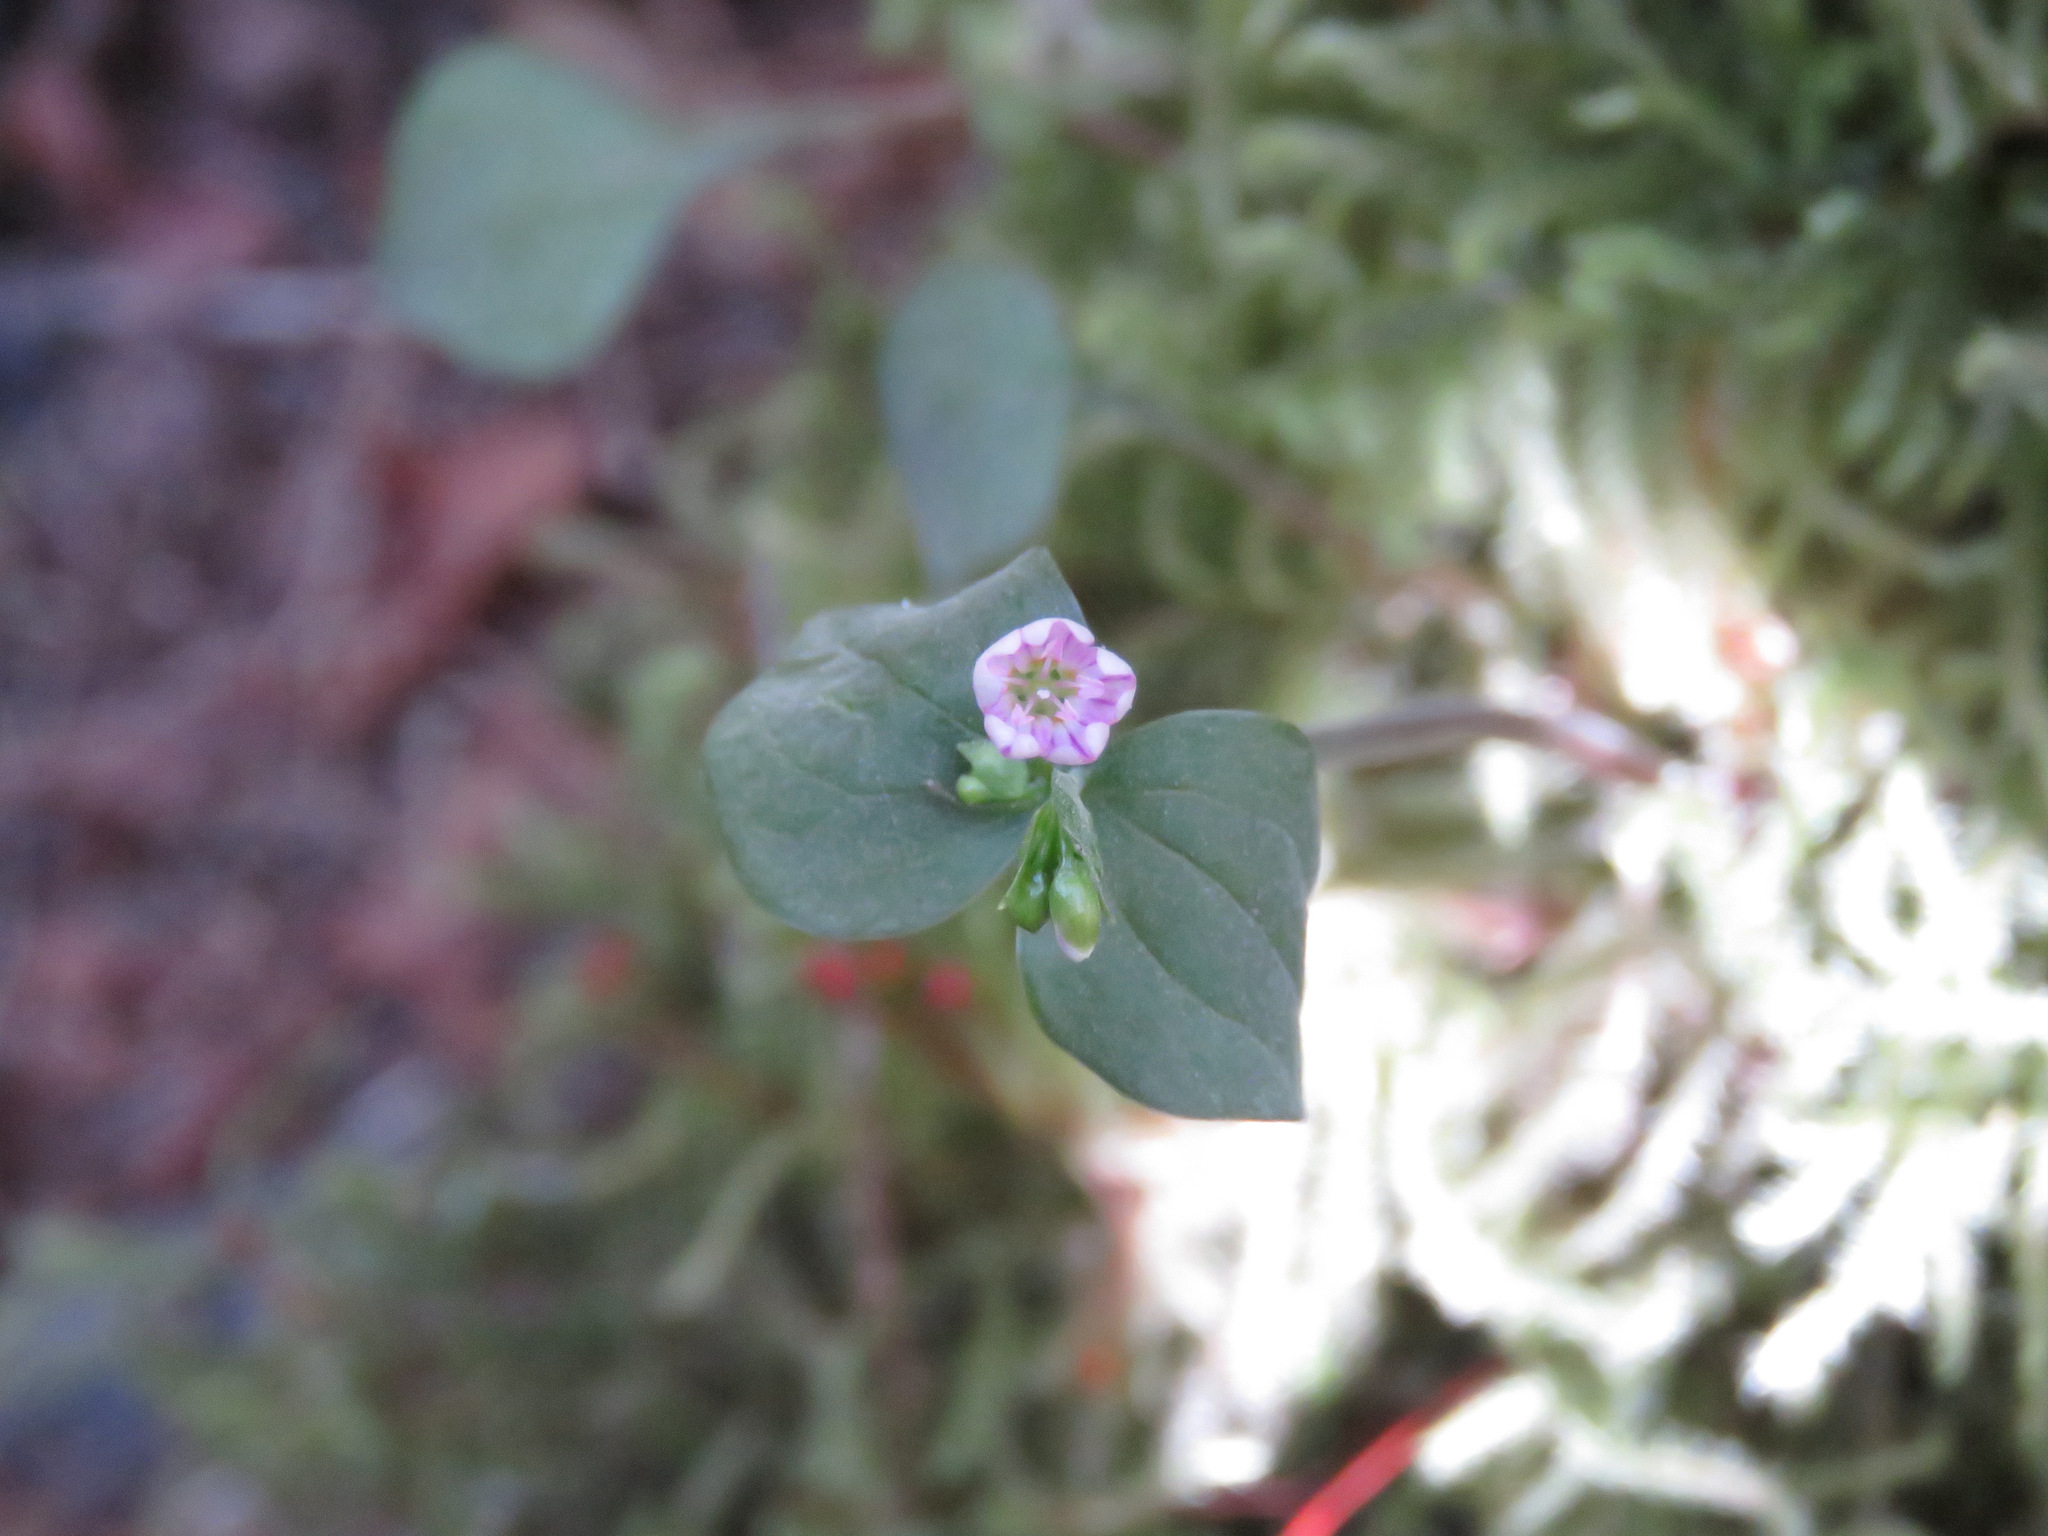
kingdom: Plantae
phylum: Tracheophyta
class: Magnoliopsida
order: Caryophyllales
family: Montiaceae
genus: Claytonia
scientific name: Claytonia sibirica
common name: Pink purslane
